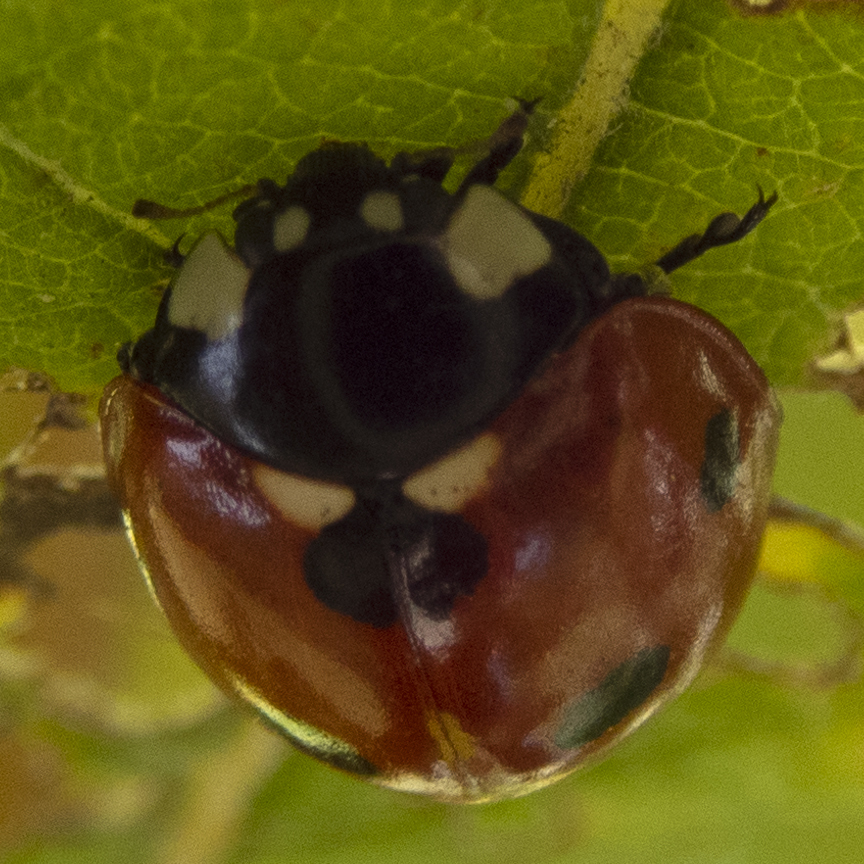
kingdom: Animalia
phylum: Arthropoda
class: Insecta
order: Coleoptera
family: Coccinellidae
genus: Coccinella
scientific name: Coccinella septempunctata
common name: Sevenspotted lady beetle
